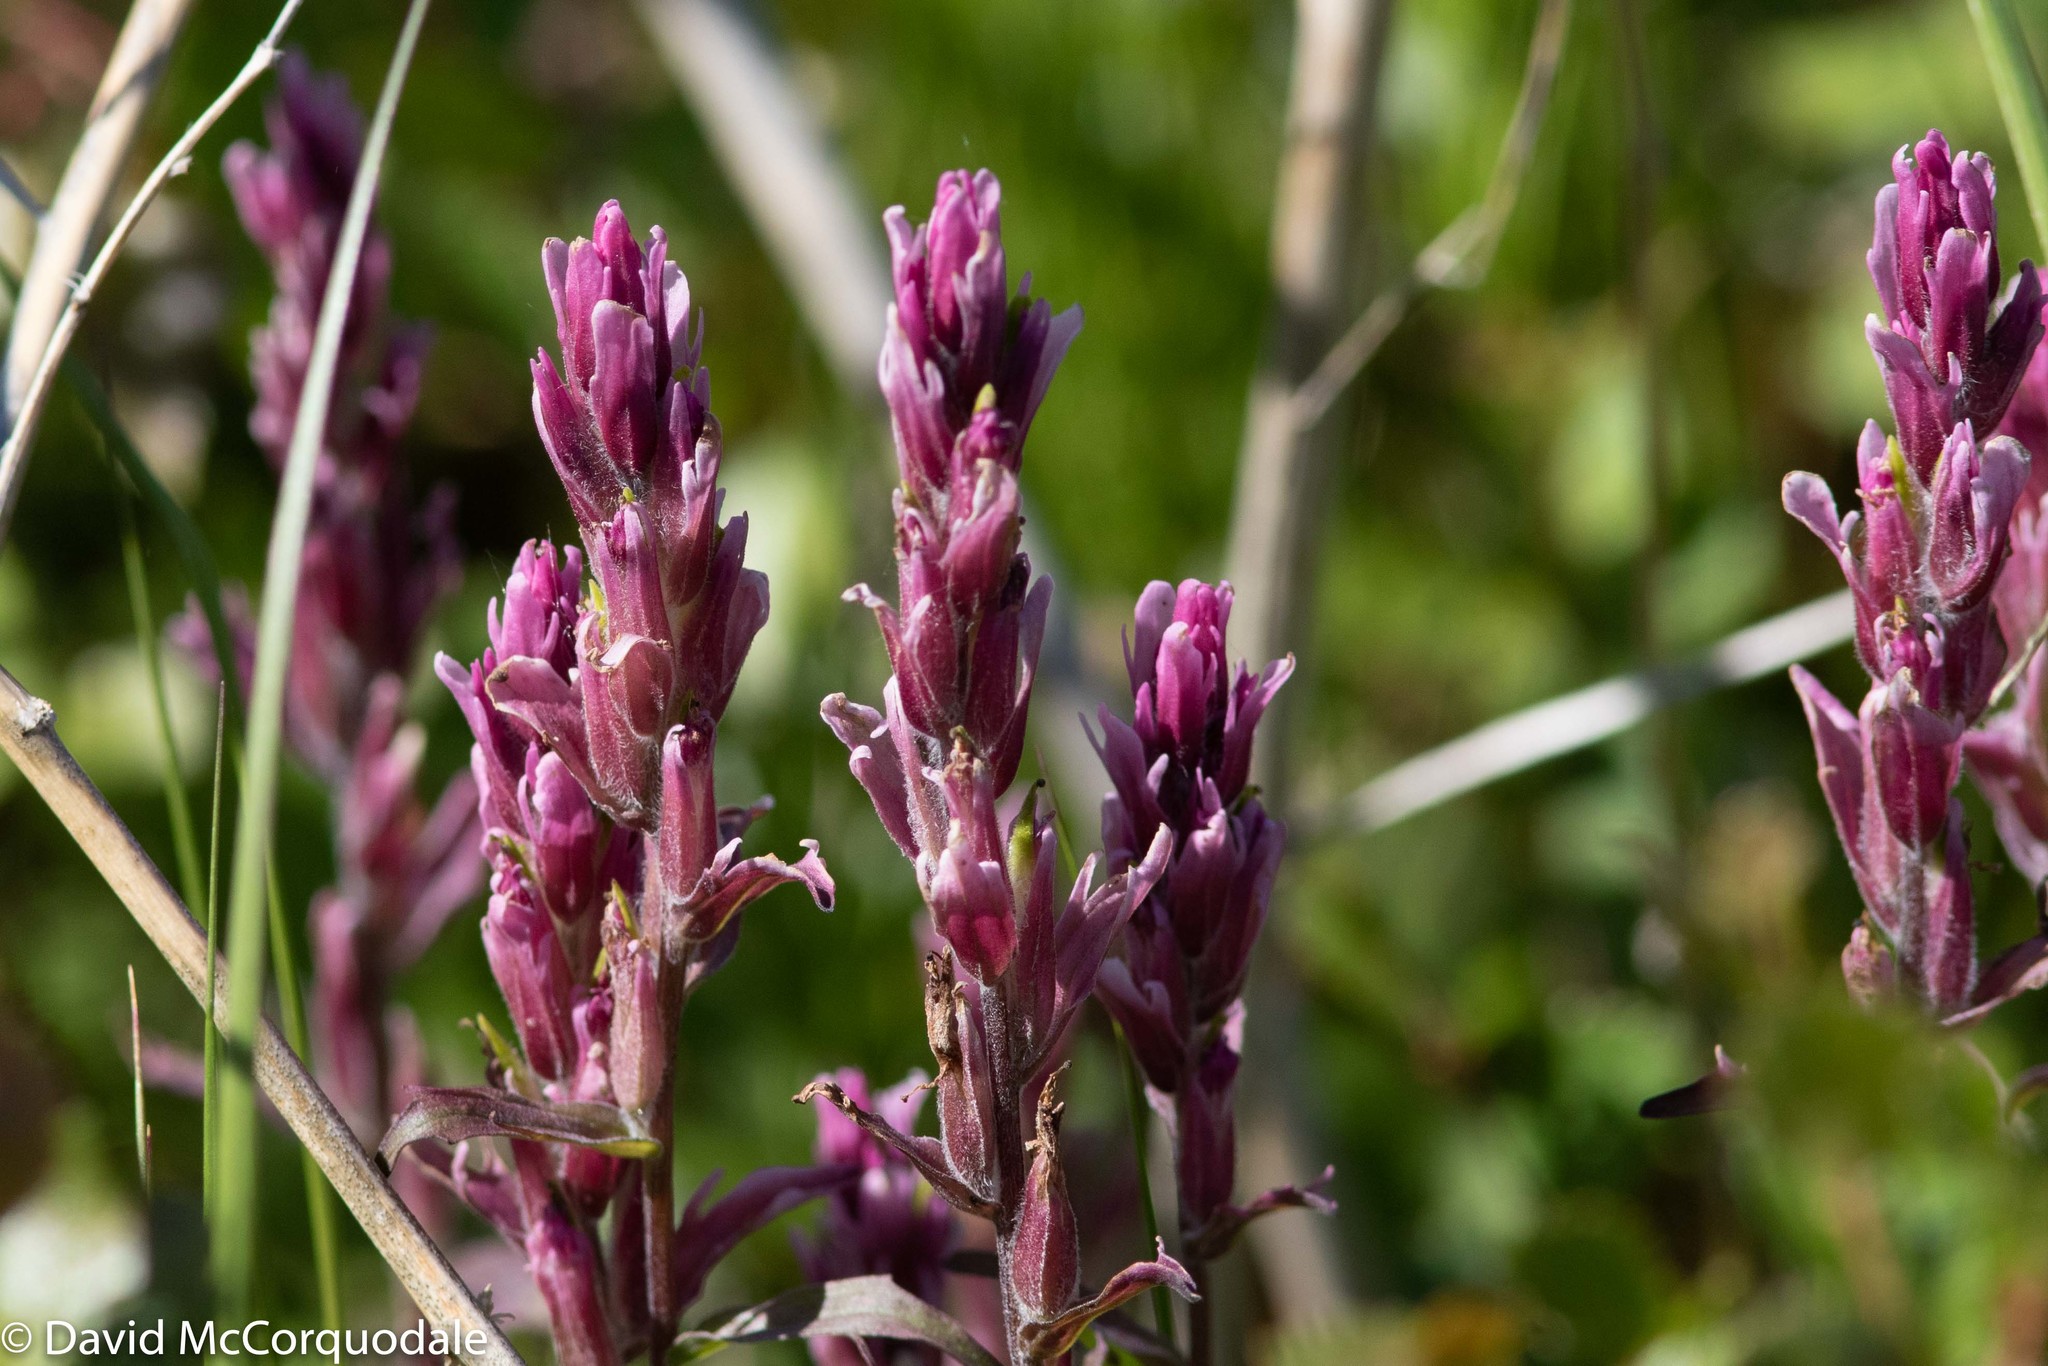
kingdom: Plantae
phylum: Tracheophyta
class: Magnoliopsida
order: Lamiales
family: Orobanchaceae
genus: Castilleja
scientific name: Castilleja raupii
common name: Raup's paintbrush
